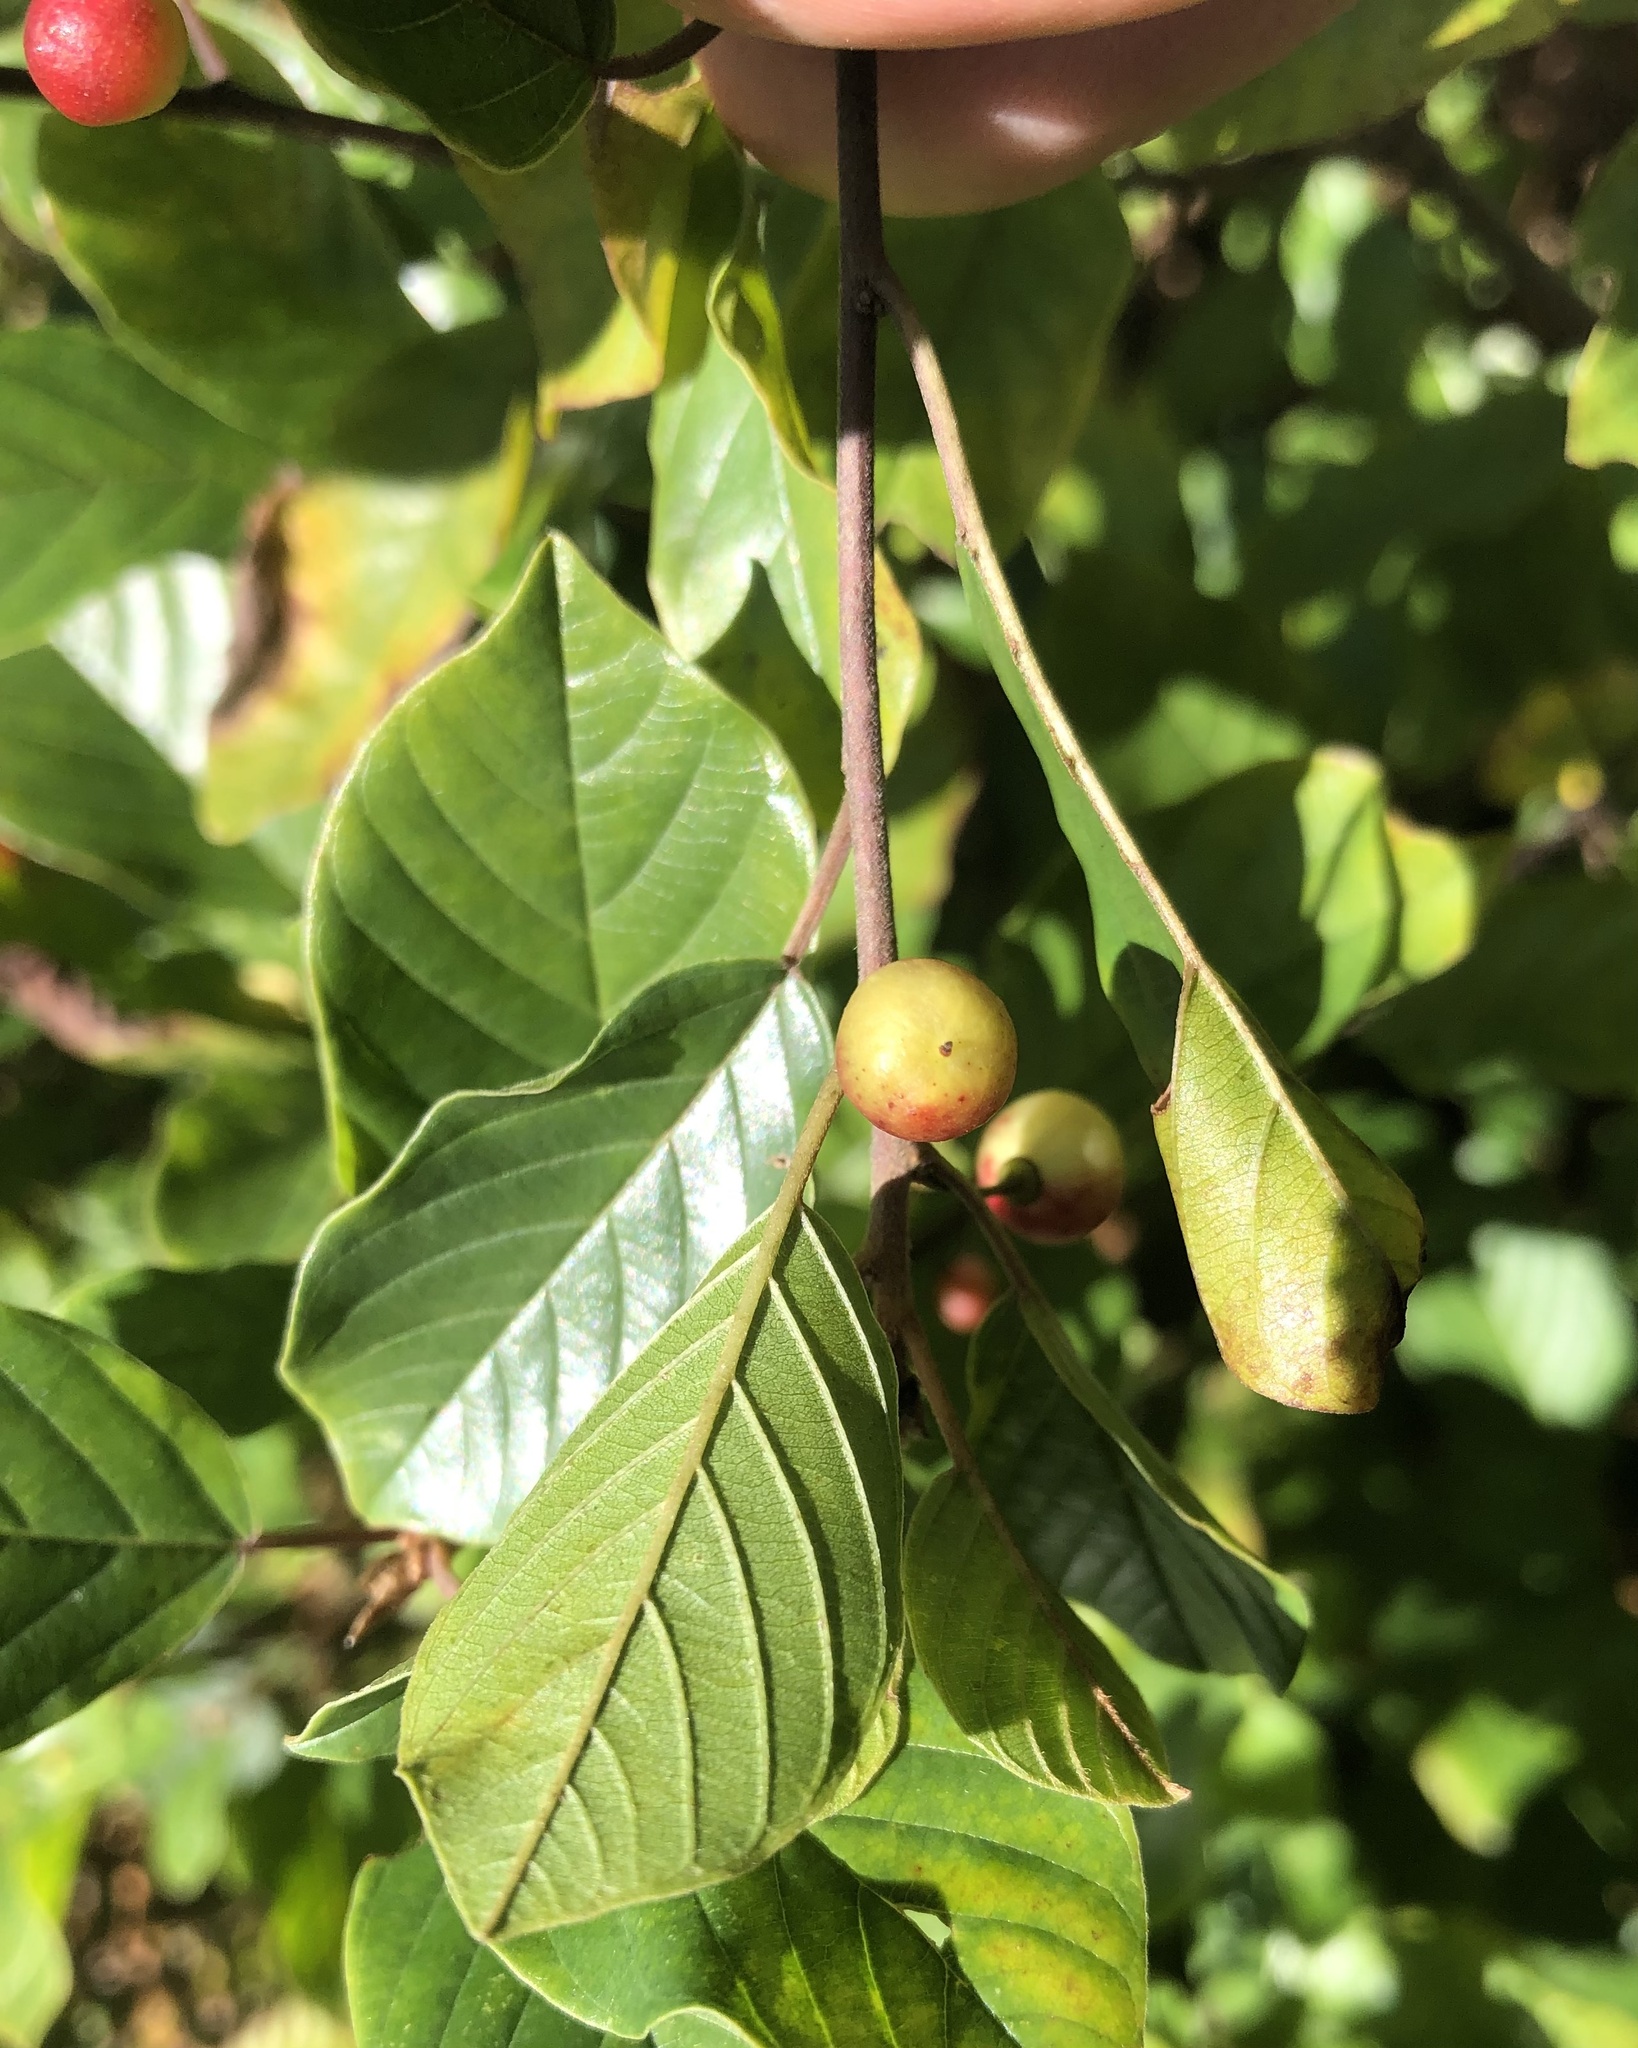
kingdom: Plantae
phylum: Tracheophyta
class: Magnoliopsida
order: Rosales
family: Rhamnaceae
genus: Frangula
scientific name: Frangula alnus
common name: Alder buckthorn
